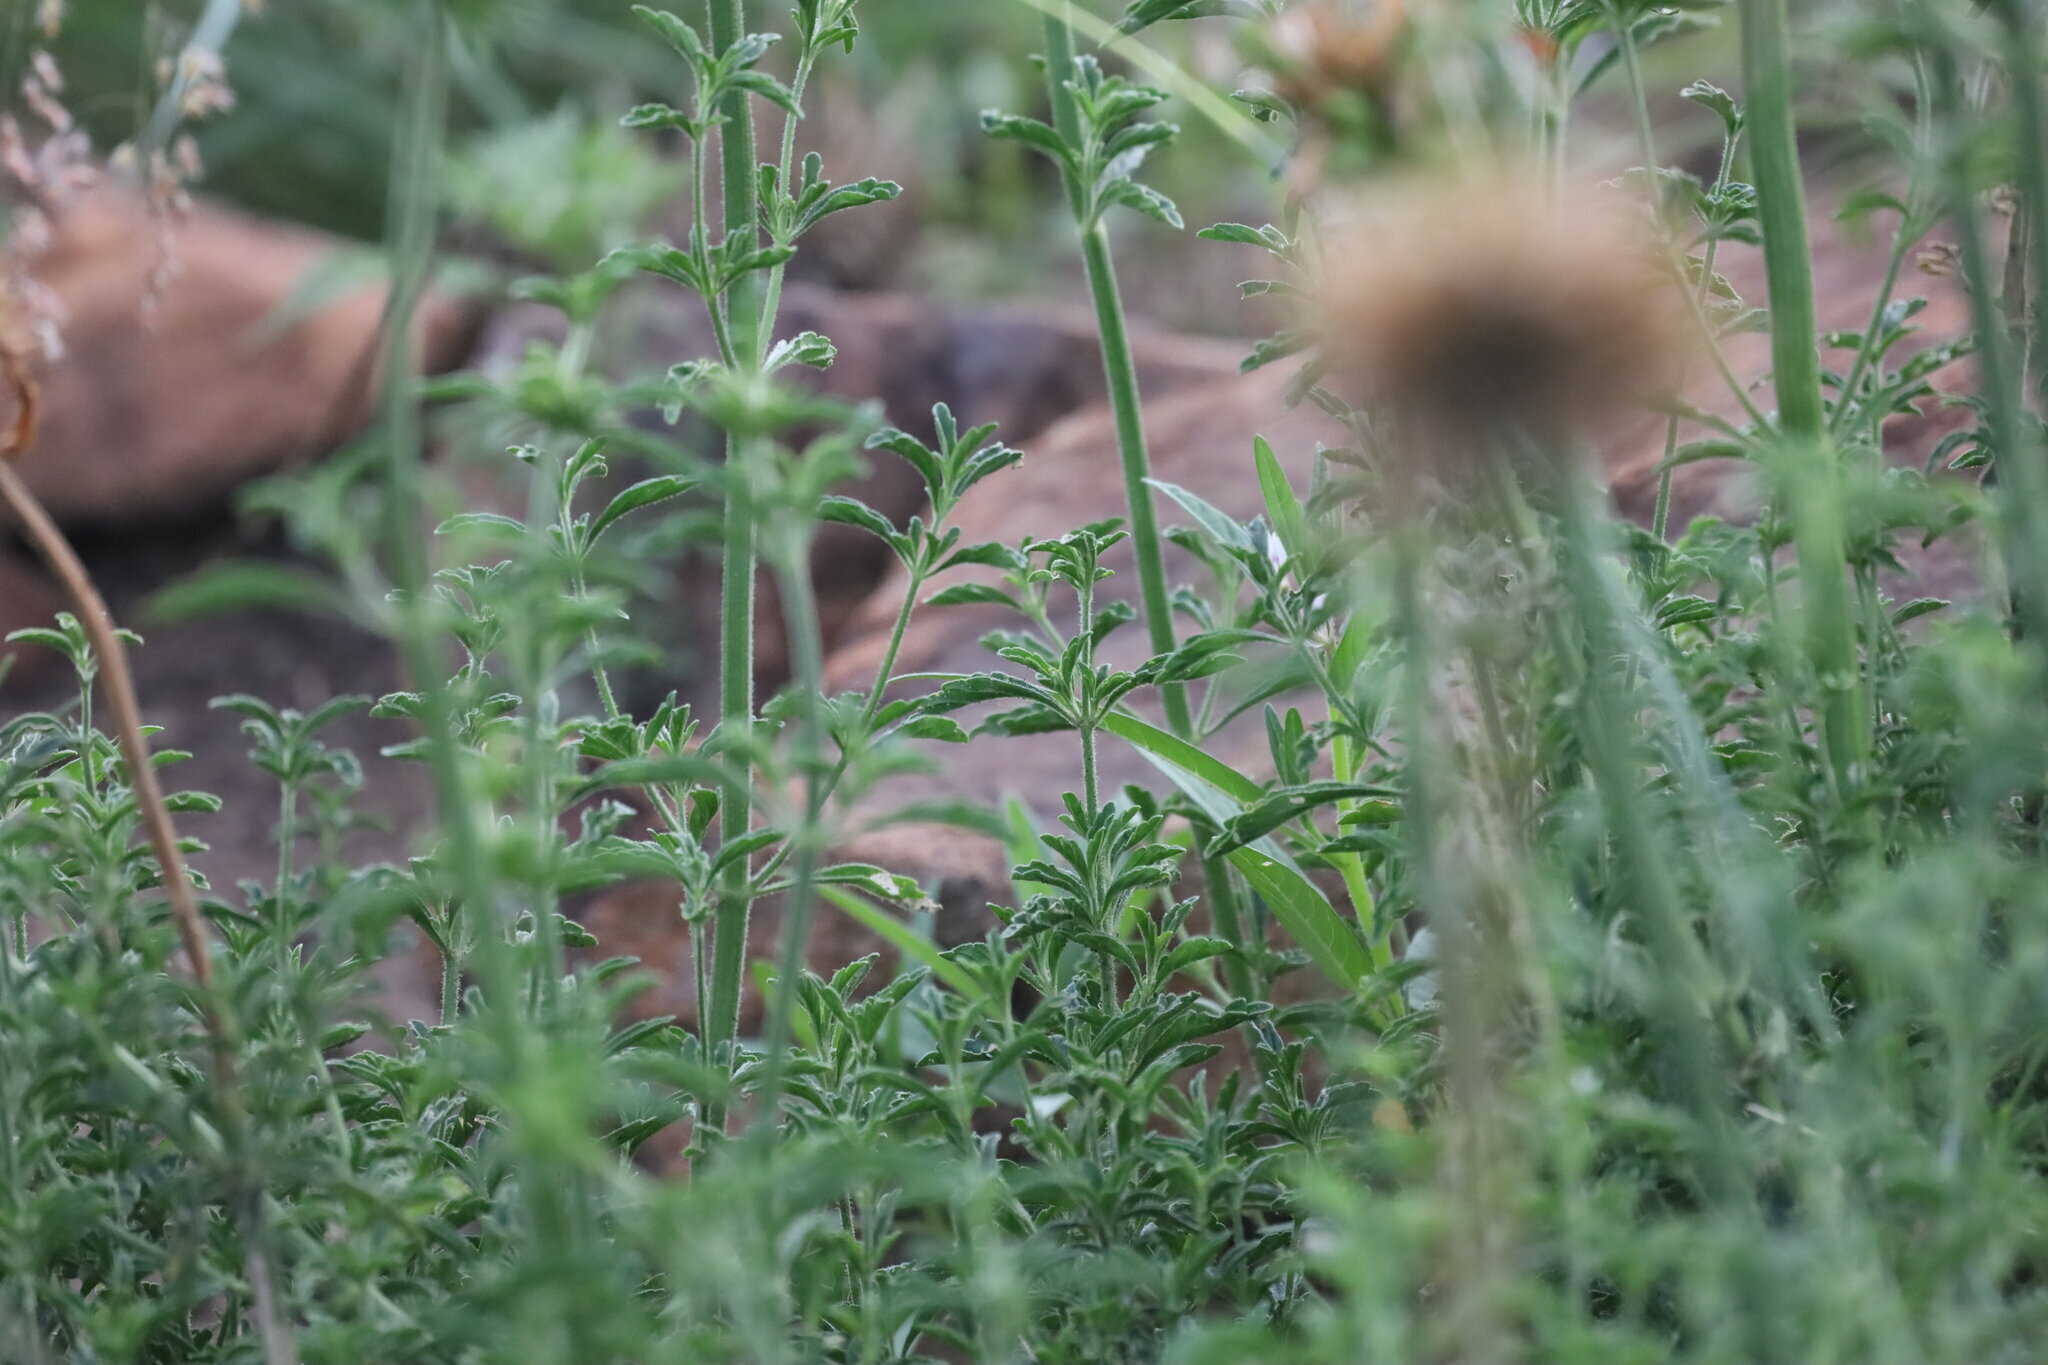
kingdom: Plantae
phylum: Tracheophyta
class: Magnoliopsida
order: Lamiales
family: Lamiaceae
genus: Leonotis
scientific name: Leonotis nepetifolia
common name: Christmas candlestick
